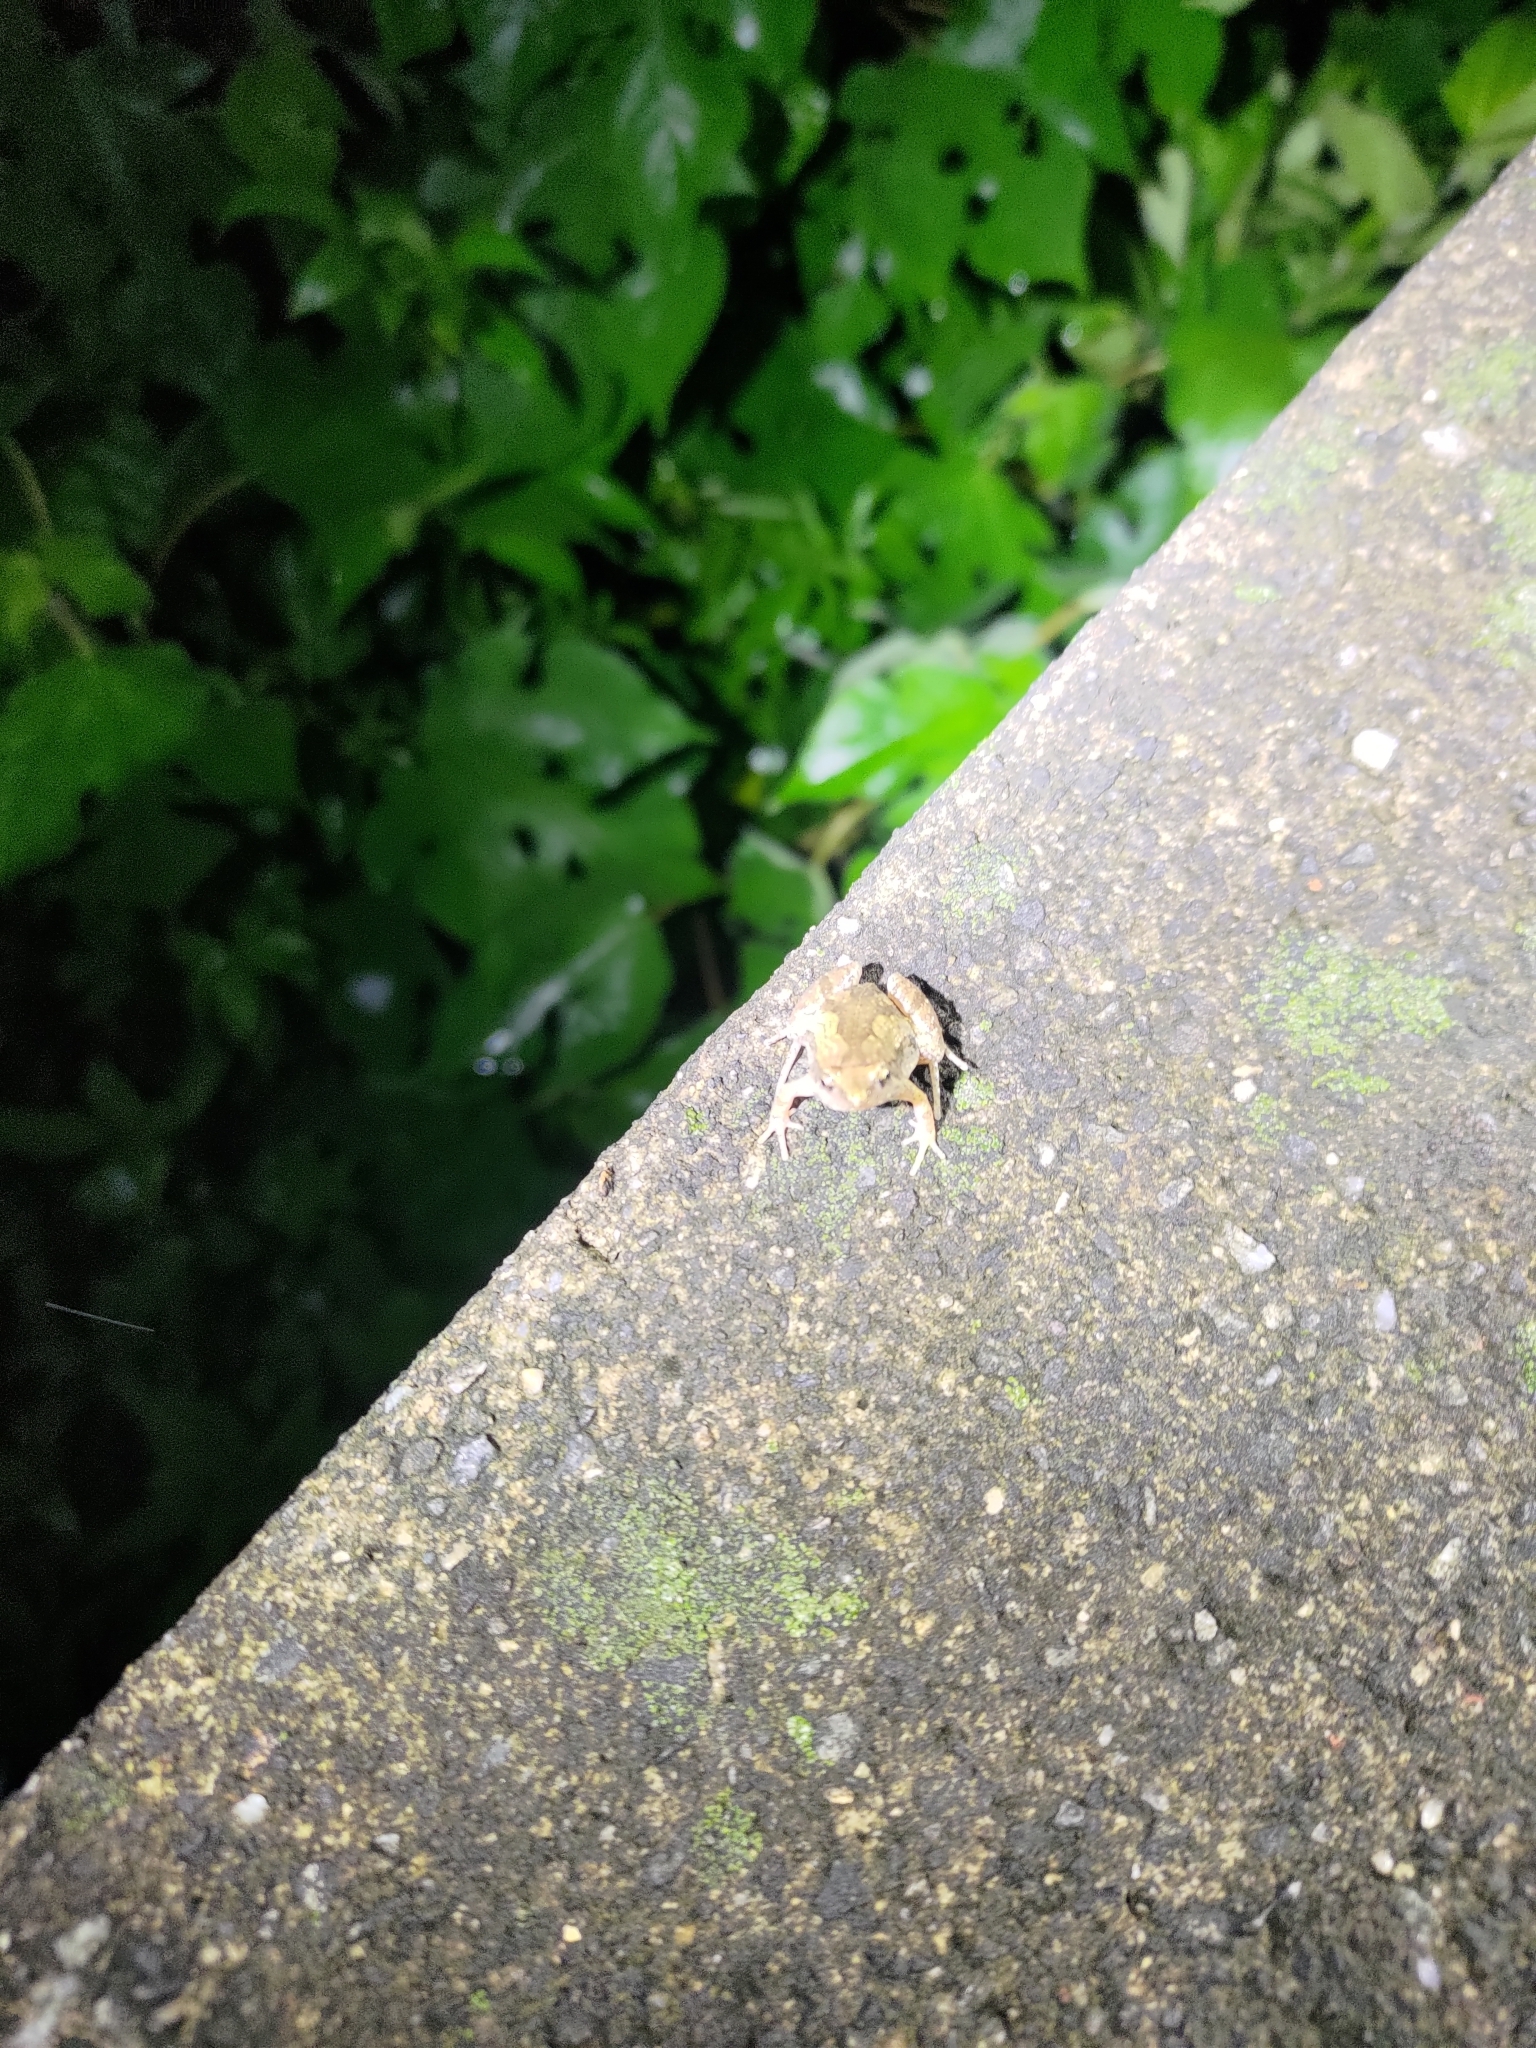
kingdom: Animalia
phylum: Chordata
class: Amphibia
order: Anura
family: Microhylidae
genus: Microhyla
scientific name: Microhyla fissipes
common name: Ornate narrow-mouthed frog
